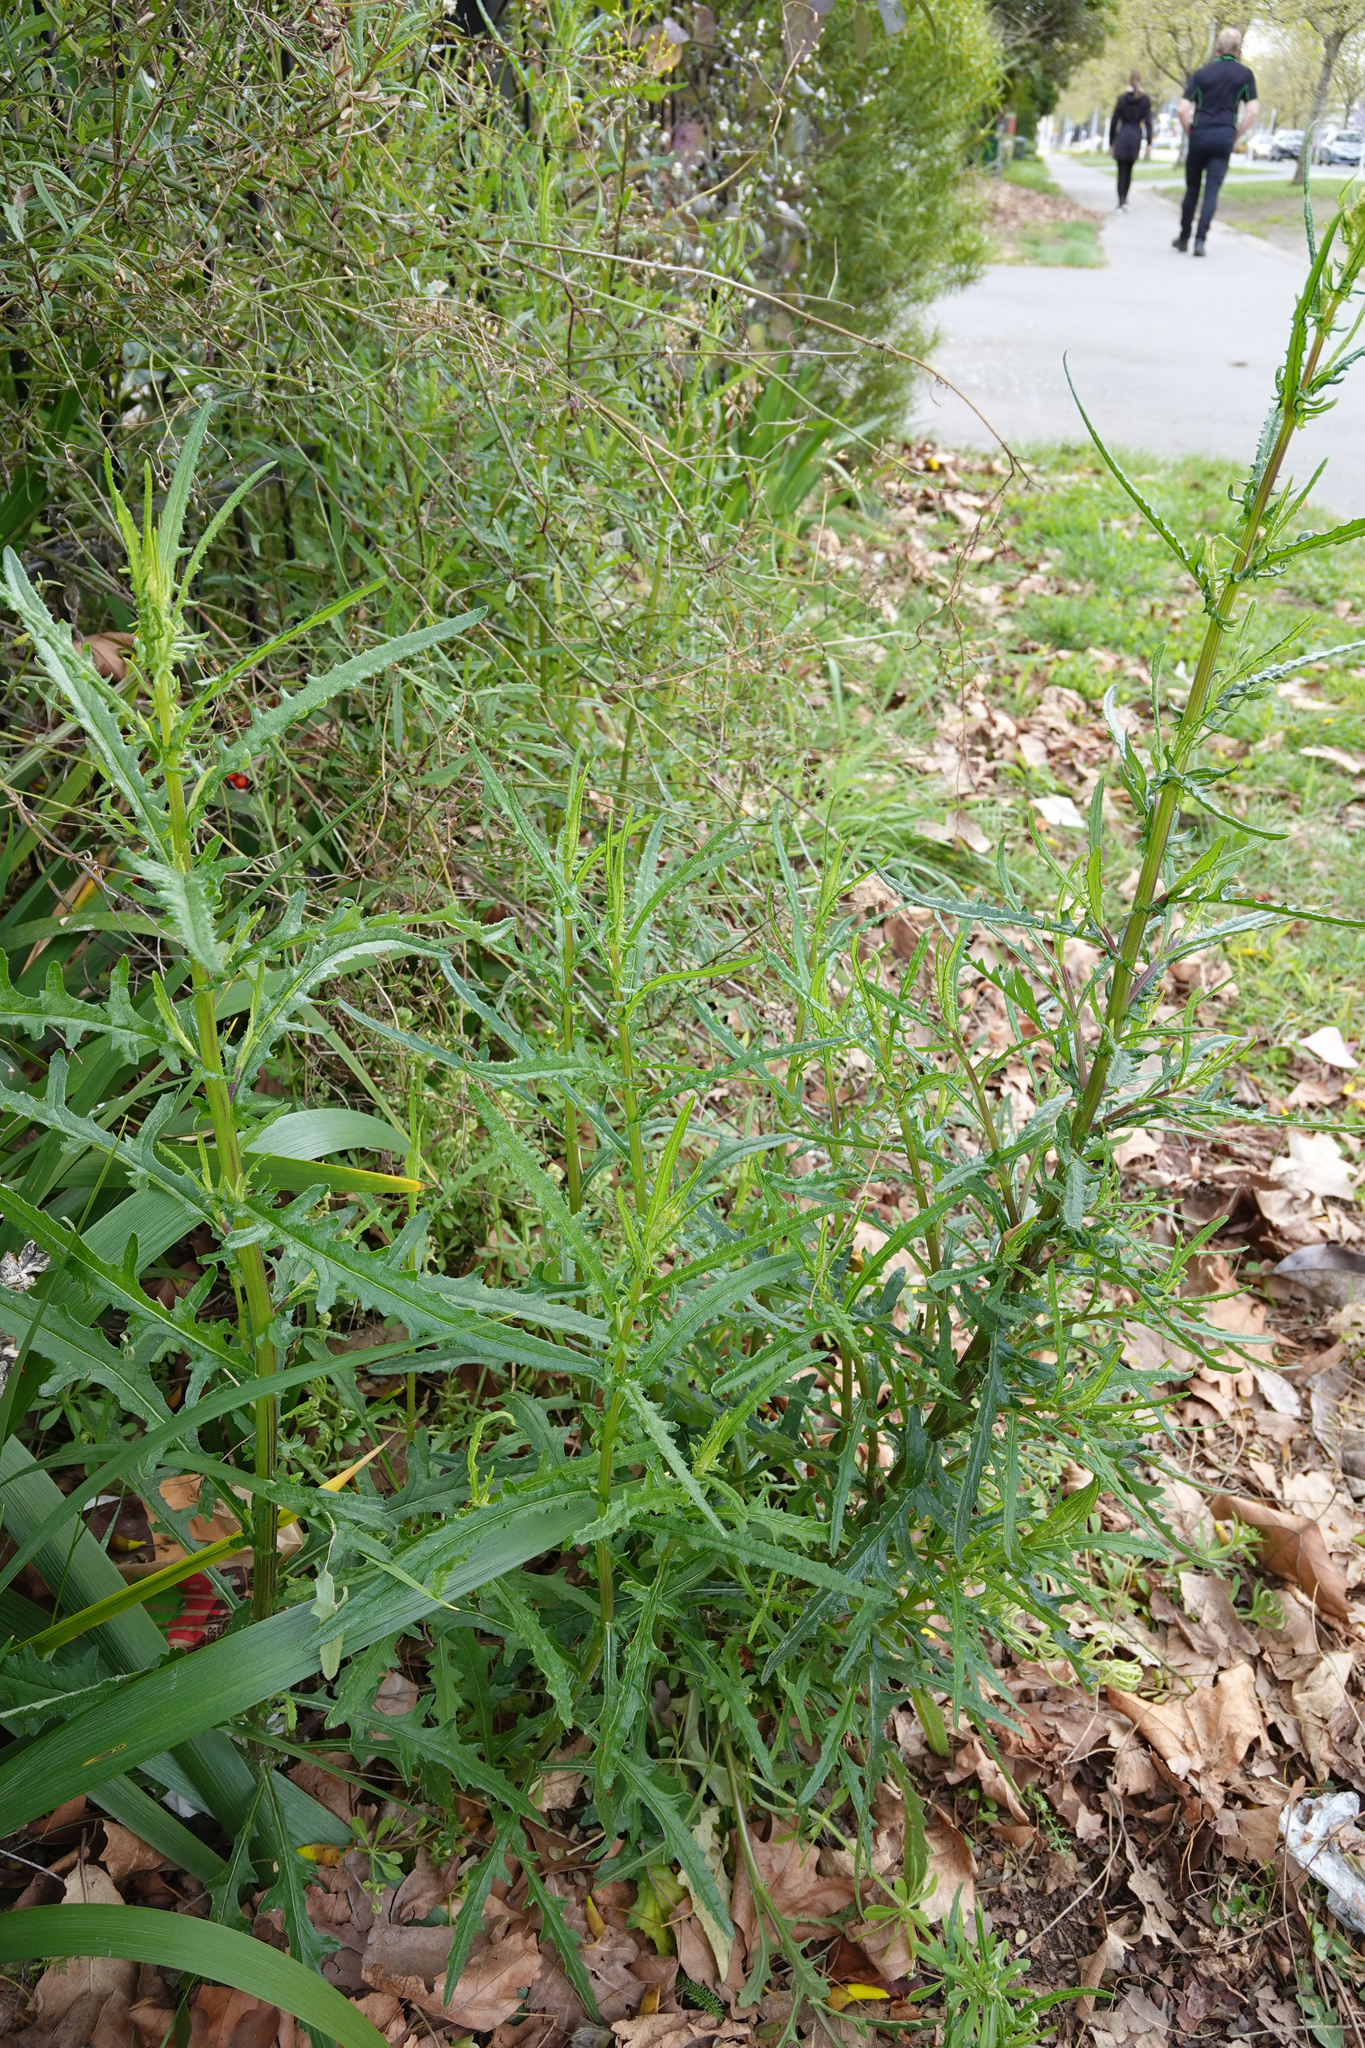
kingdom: Plantae
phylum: Tracheophyta
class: Magnoliopsida
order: Asterales
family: Asteraceae
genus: Senecio
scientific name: Senecio hispidulus
